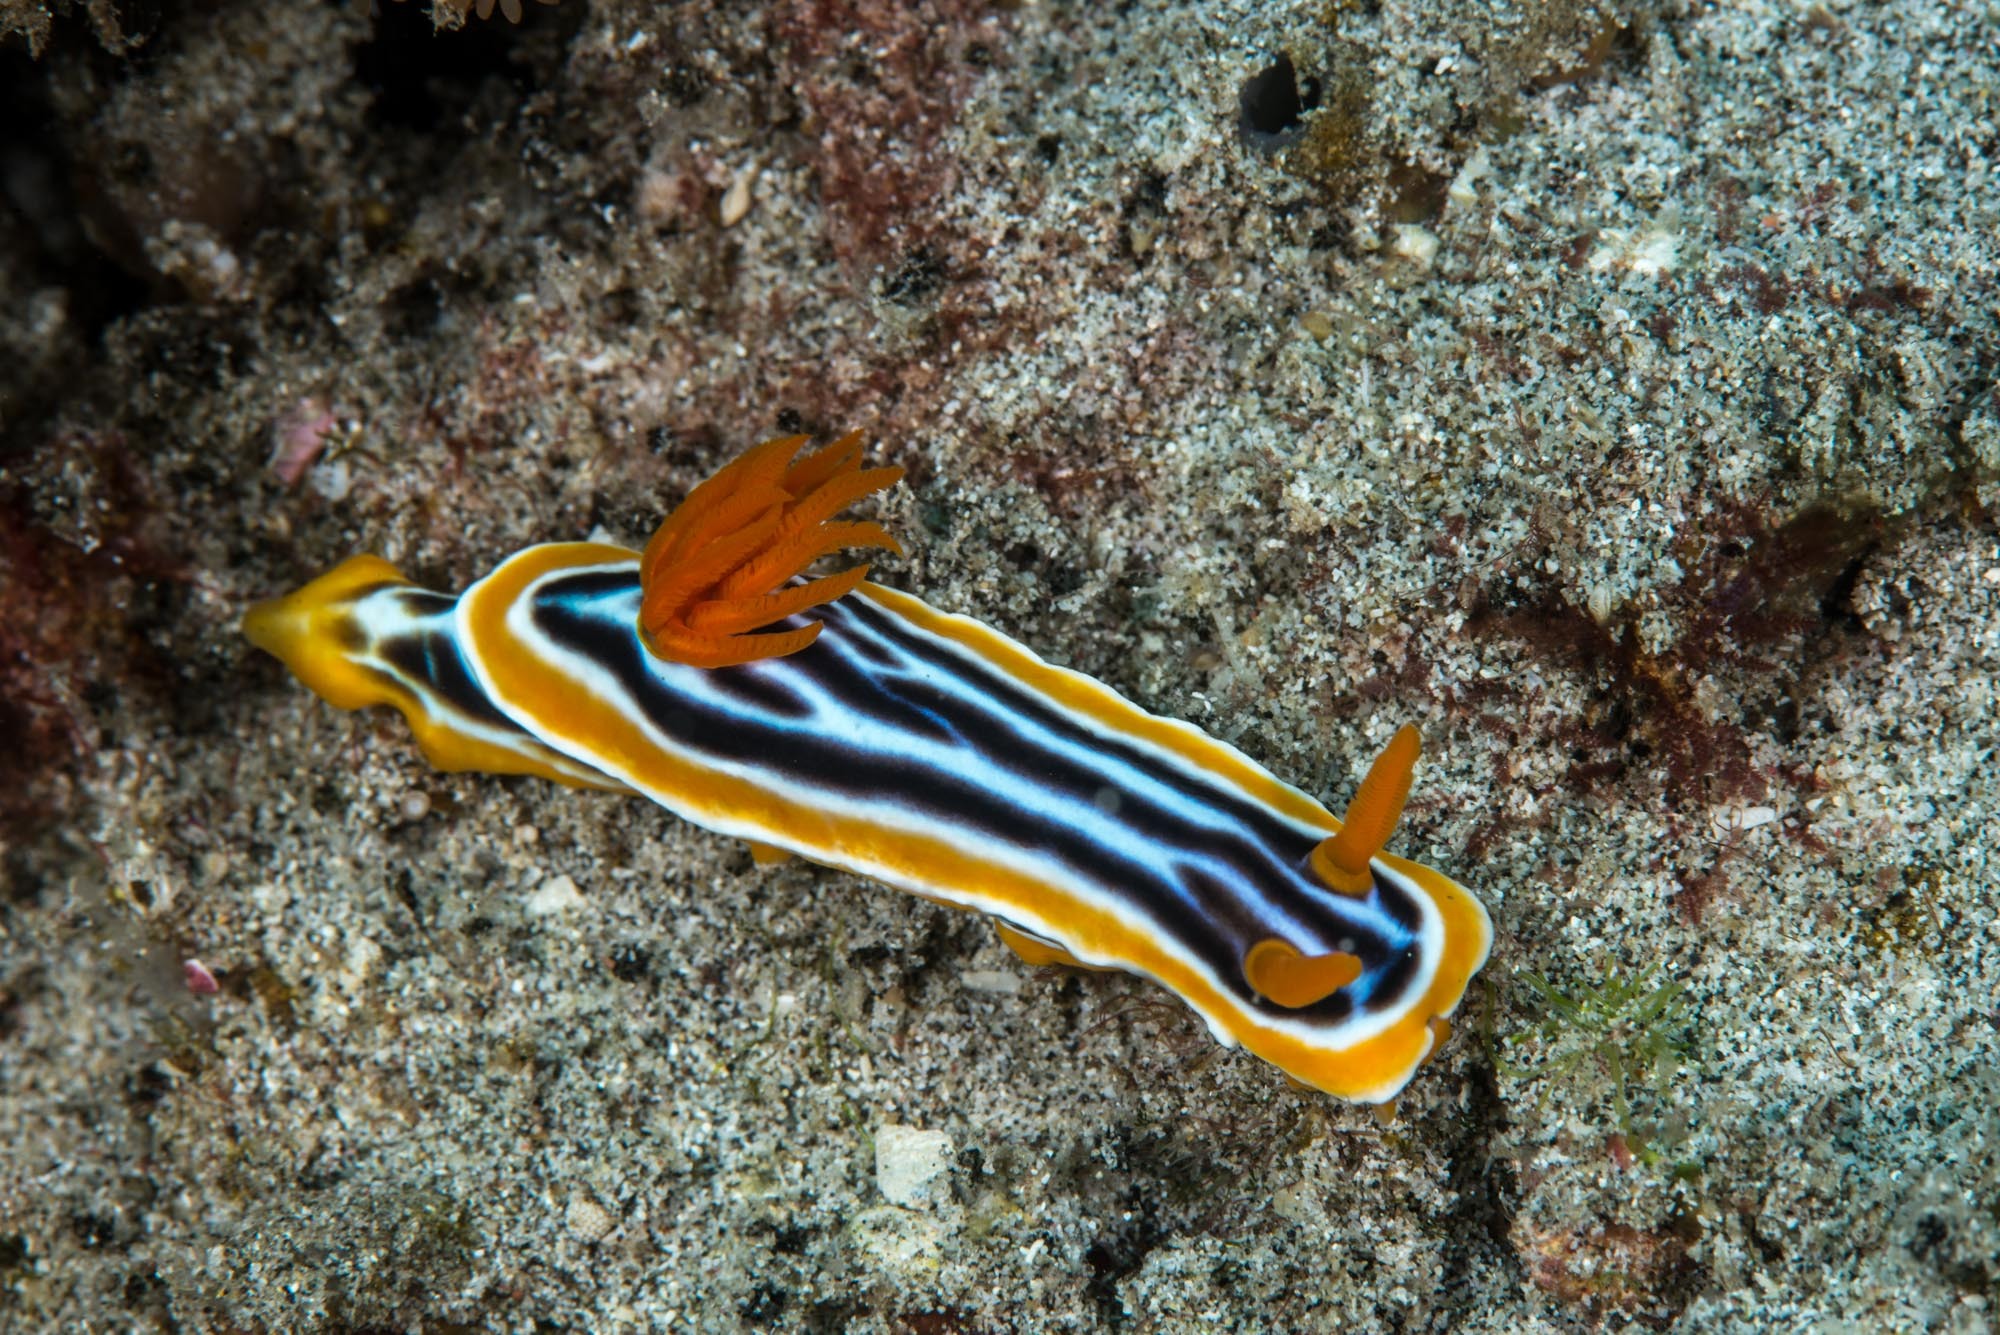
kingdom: Animalia
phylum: Mollusca
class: Gastropoda
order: Nudibranchia
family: Chromodorididae
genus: Chromodoris
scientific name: Chromodoris magnifica
